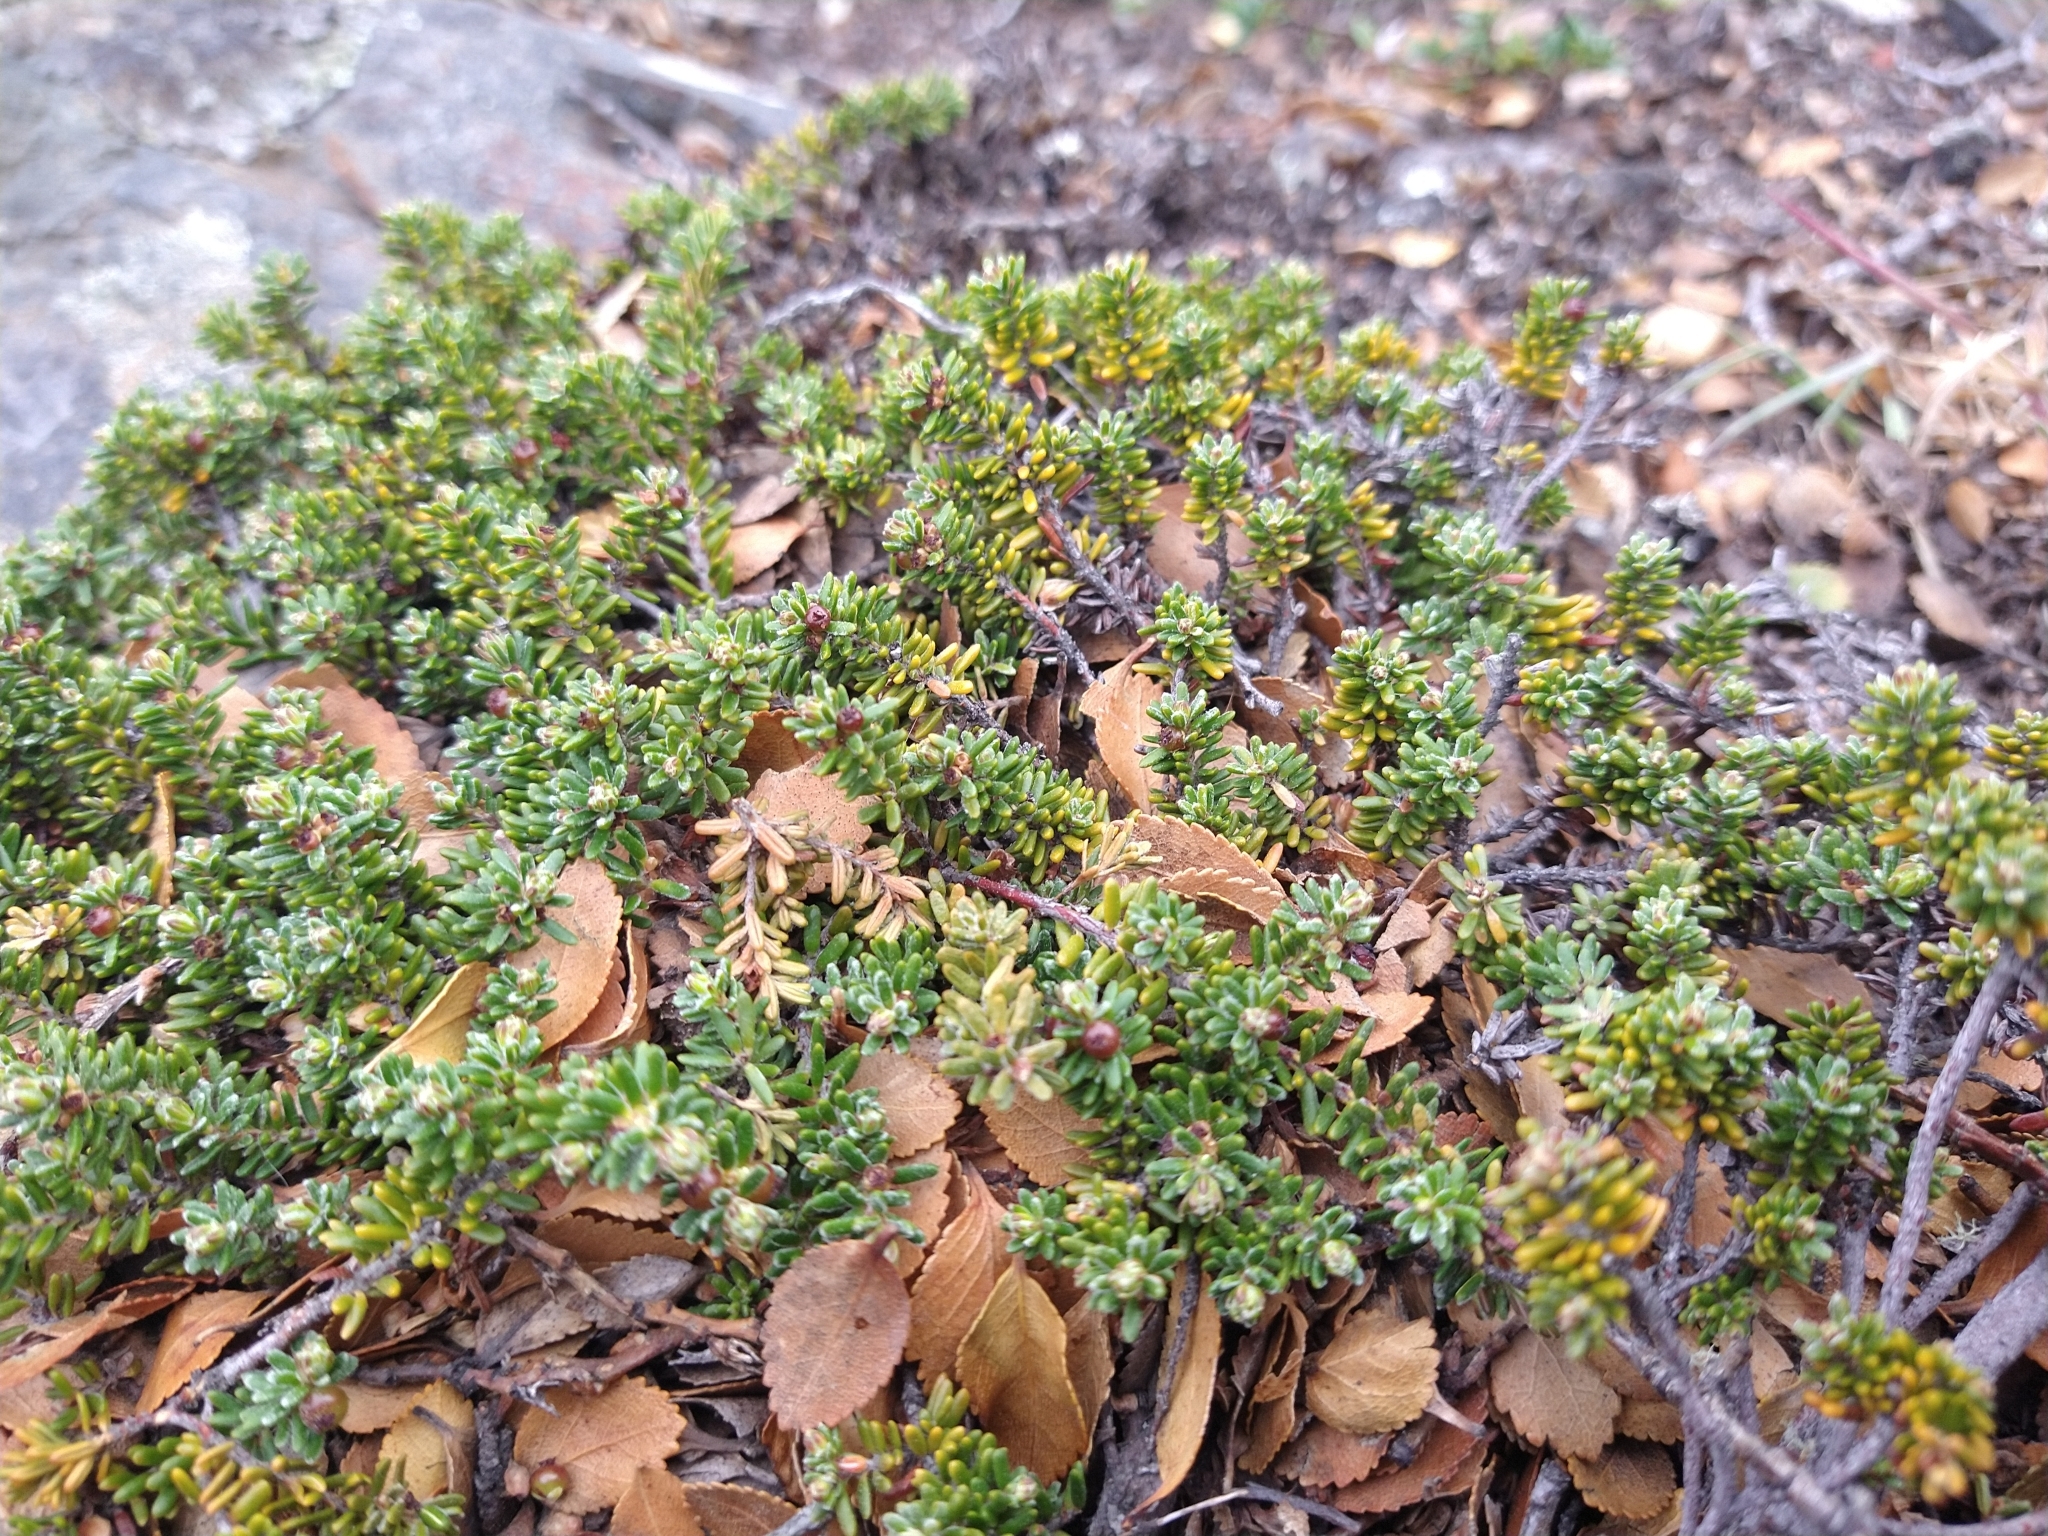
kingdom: Plantae
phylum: Tracheophyta
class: Magnoliopsida
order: Ericales
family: Ericaceae
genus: Empetrum
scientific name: Empetrum rubrum
